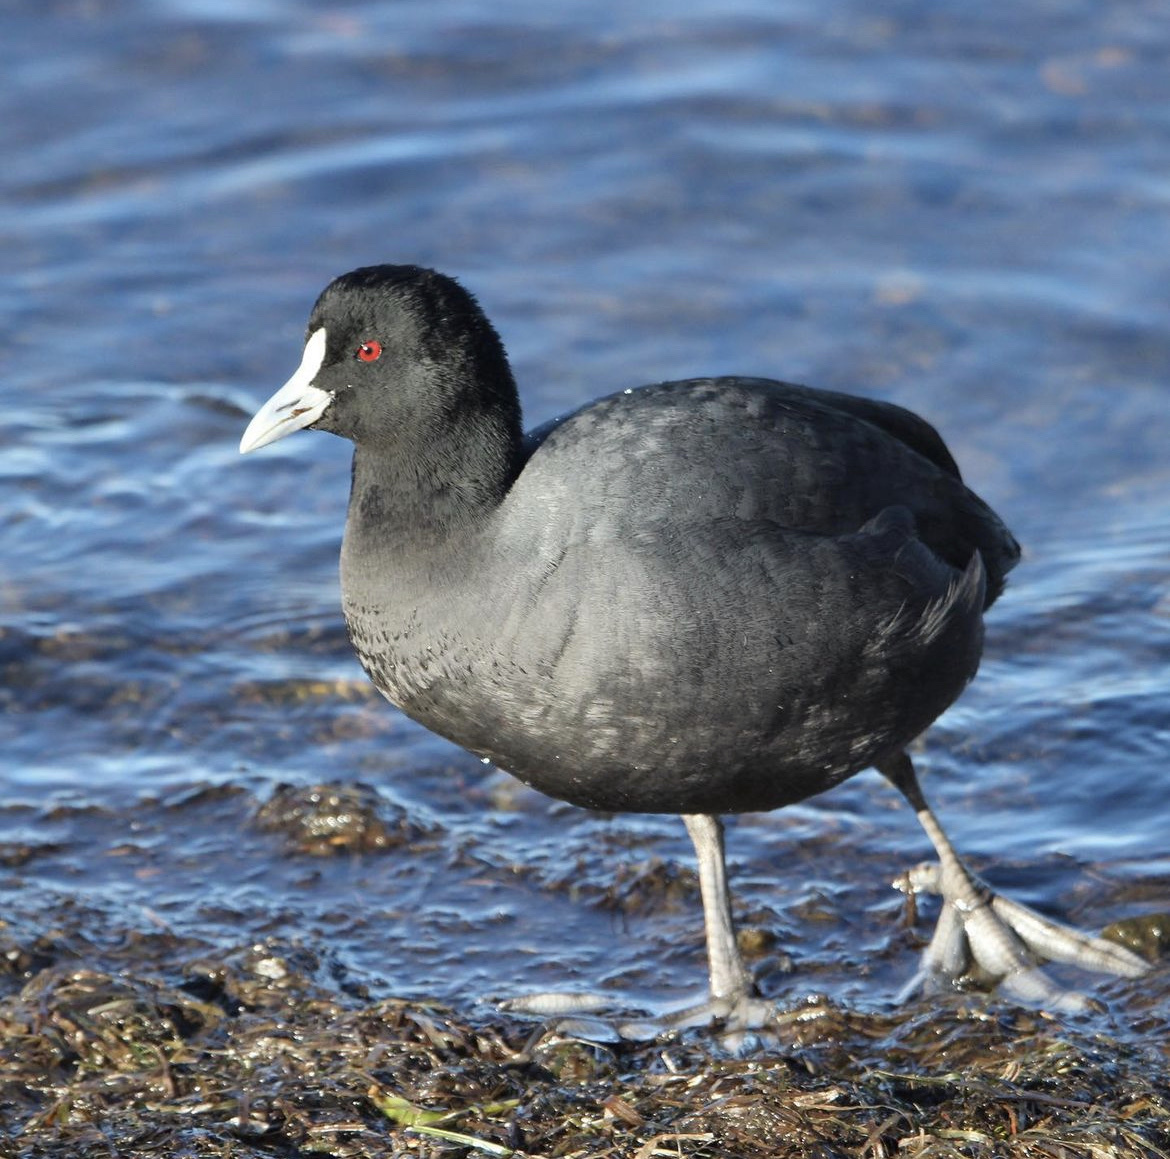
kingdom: Animalia
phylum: Chordata
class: Aves
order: Gruiformes
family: Rallidae
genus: Fulica
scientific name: Fulica atra
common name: Eurasian coot
